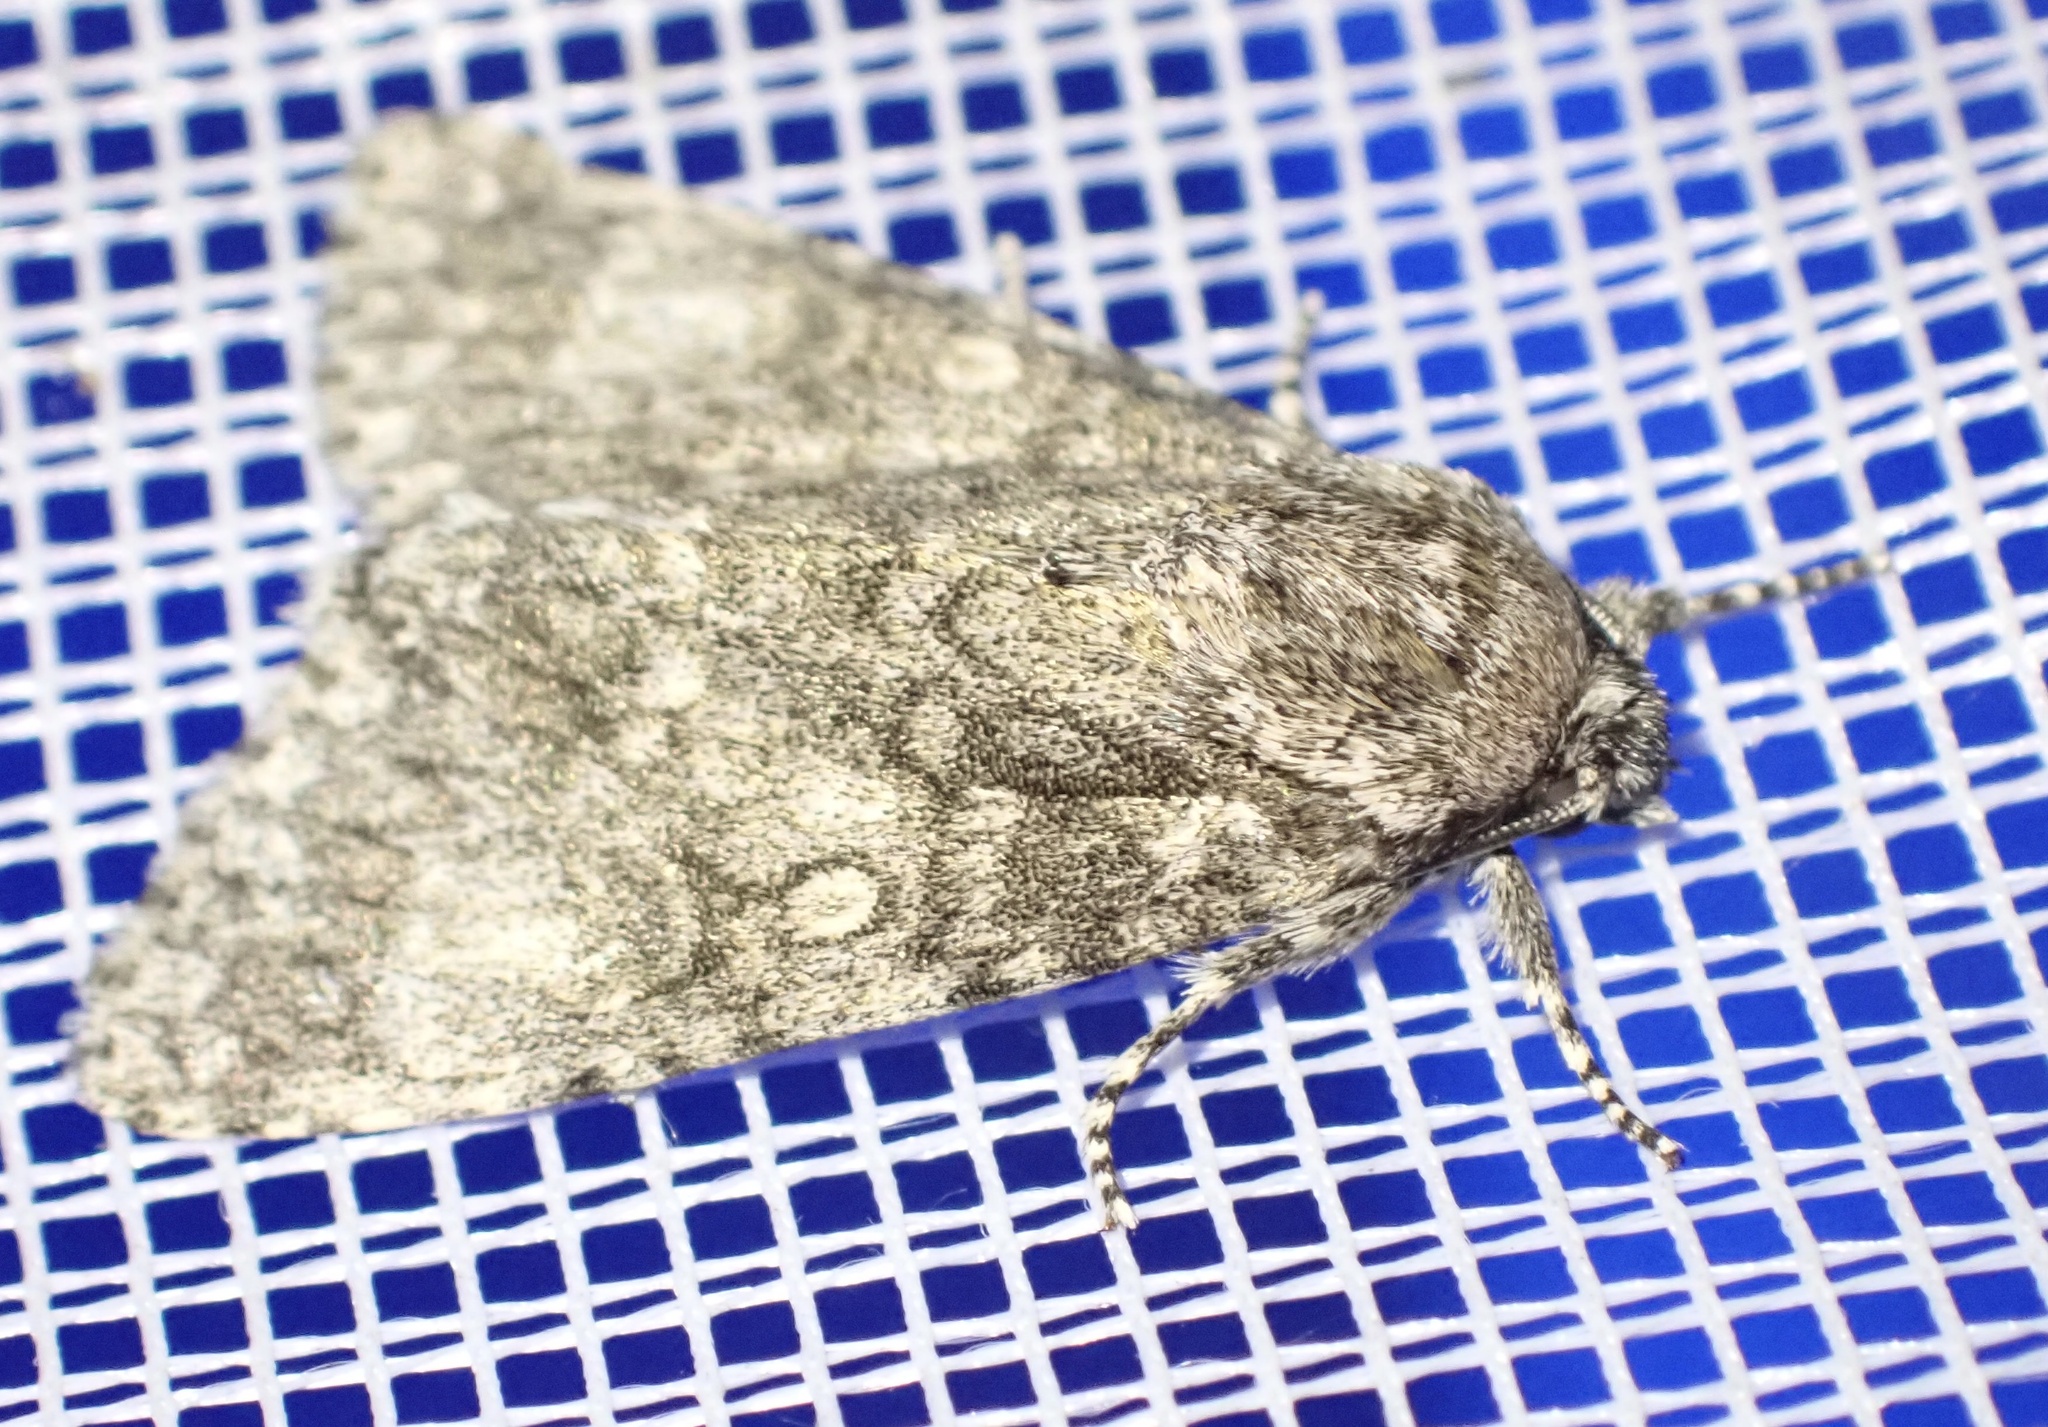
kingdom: Animalia
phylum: Arthropoda
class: Insecta
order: Lepidoptera
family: Noctuidae
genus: Acronicta
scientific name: Acronicta megacephala
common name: Poplar grey
